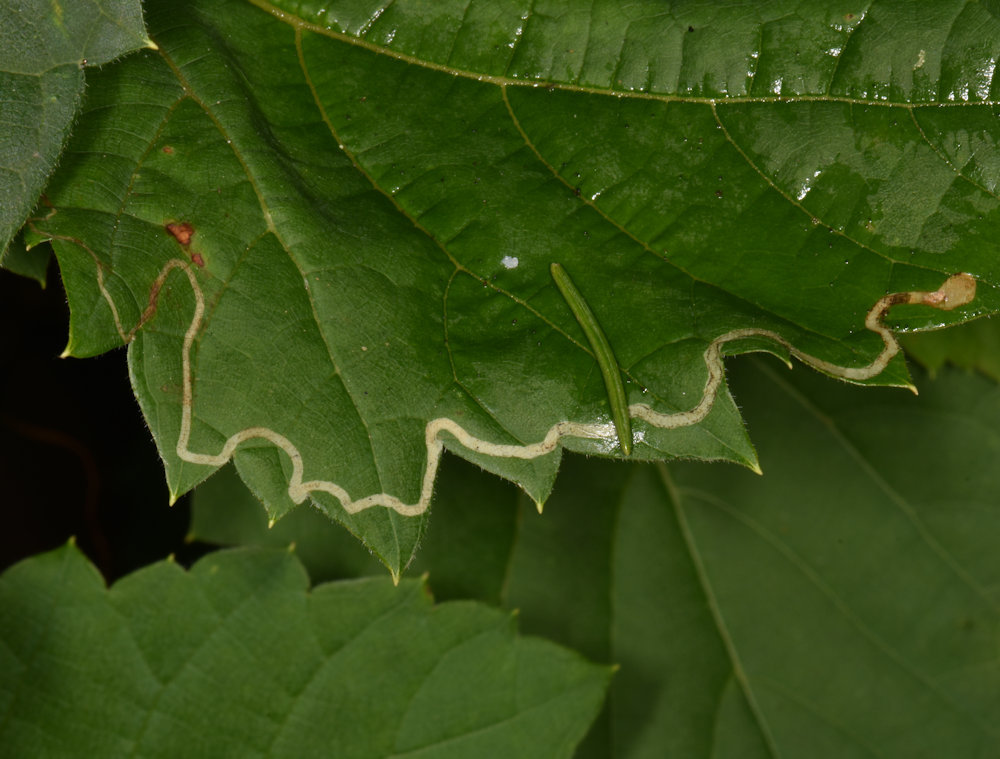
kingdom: Animalia
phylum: Arthropoda
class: Insecta
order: Lepidoptera
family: Gracillariidae
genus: Phyllocnistis
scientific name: Phyllocnistis vitifoliella
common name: Grape leaf-miner moth
